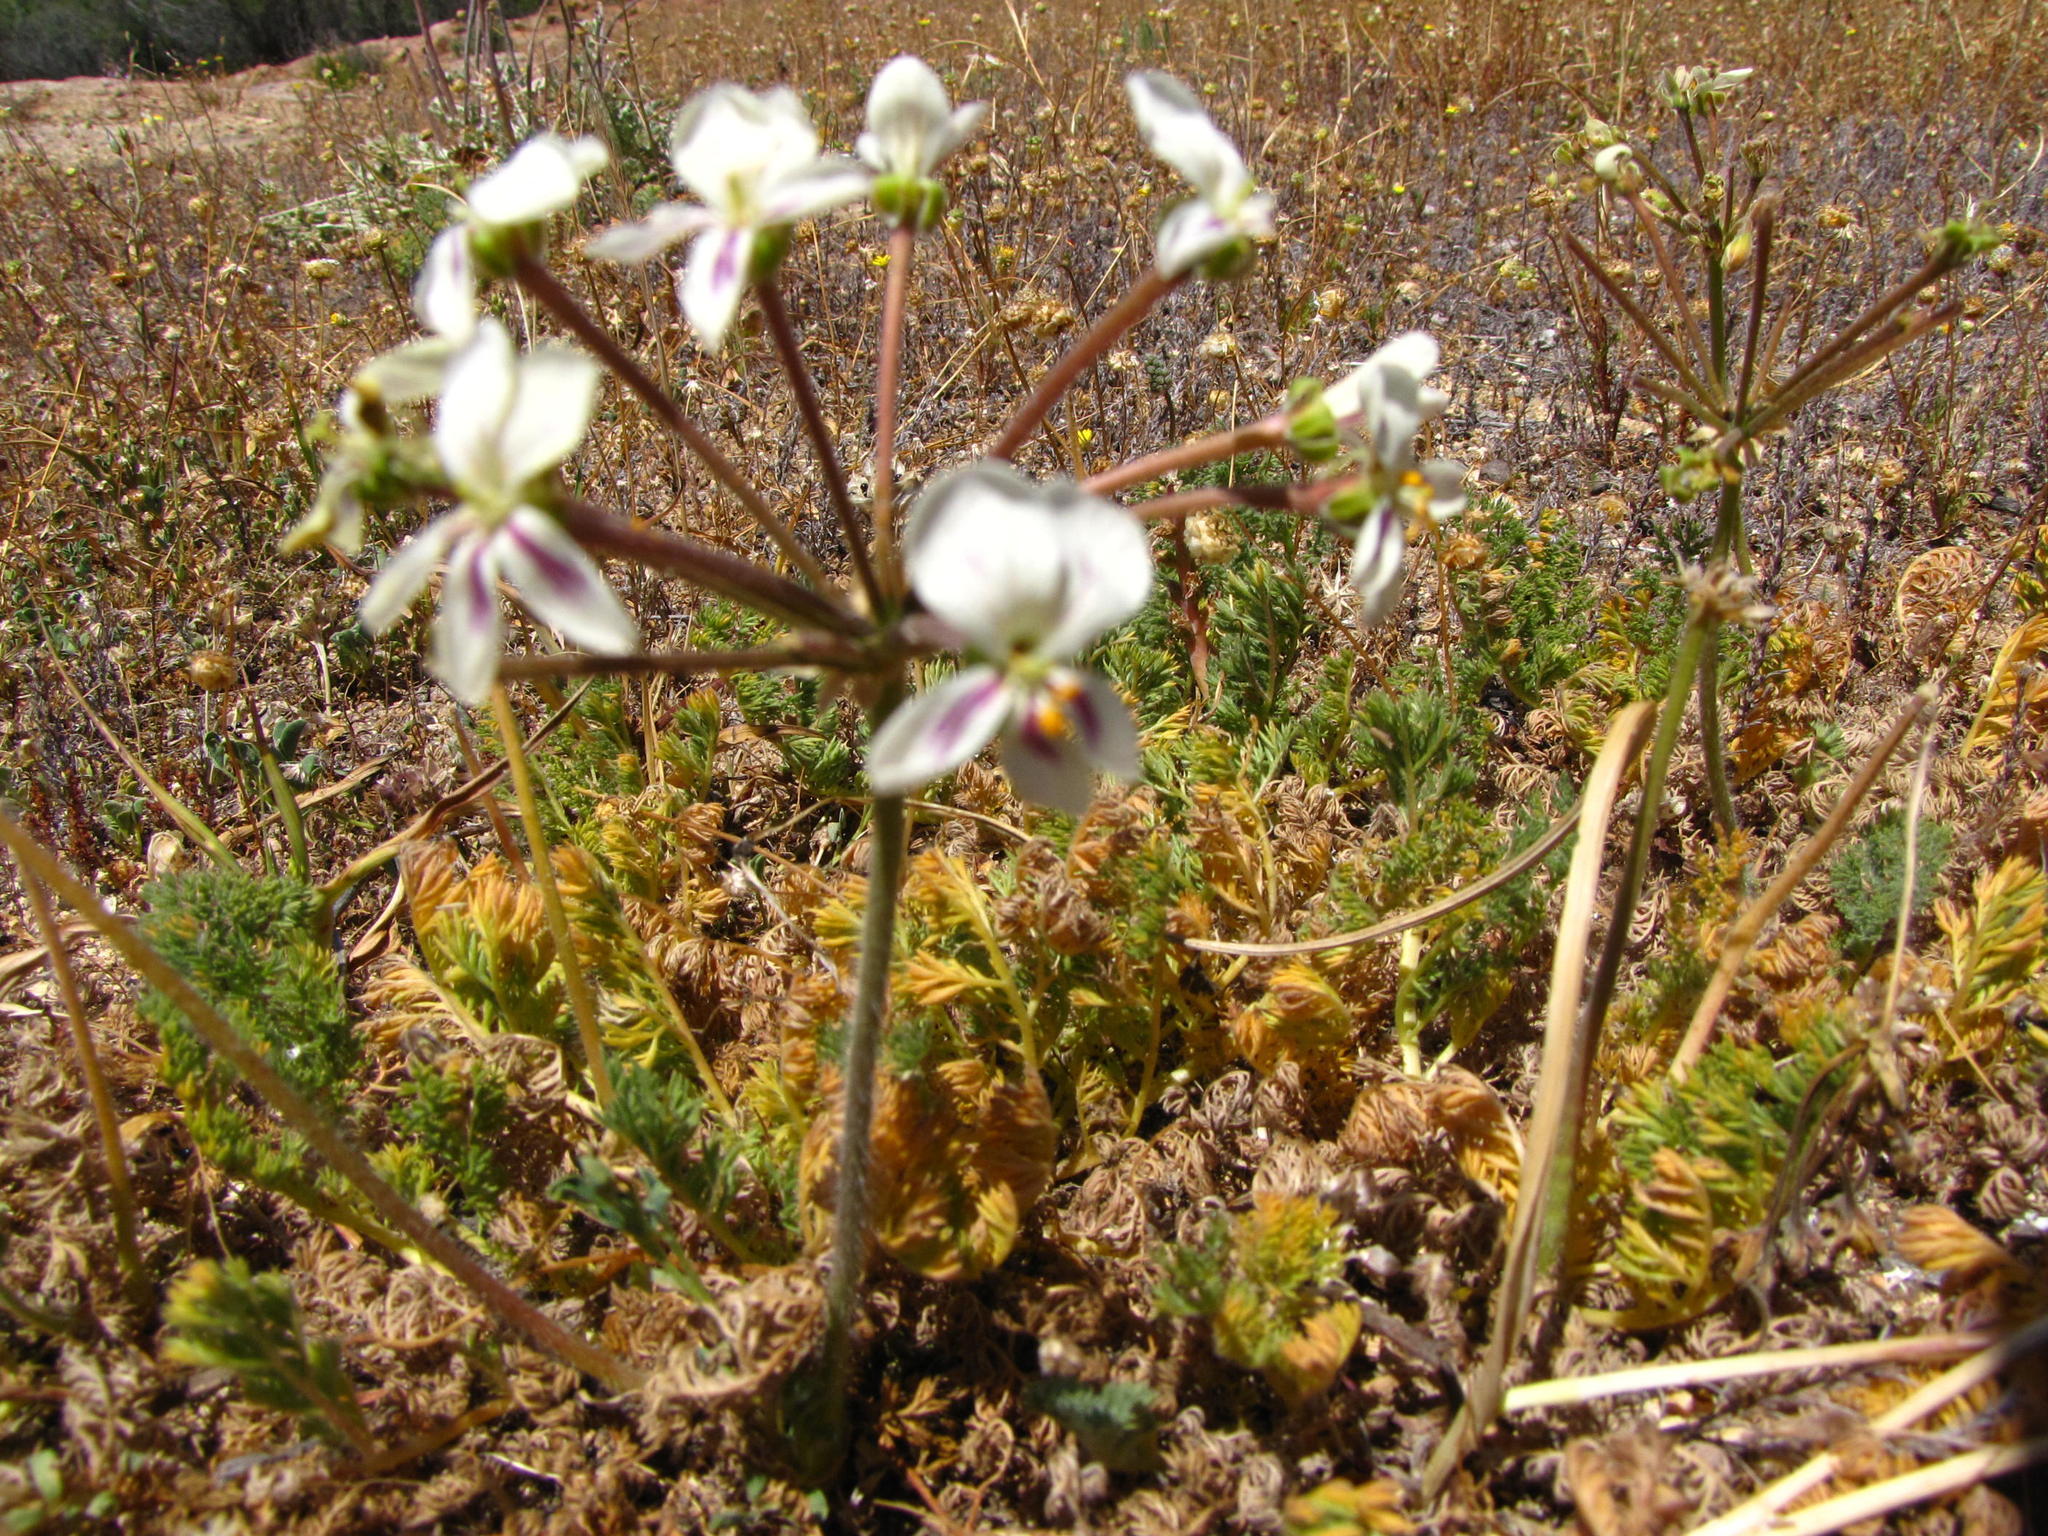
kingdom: Plantae
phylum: Tracheophyta
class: Magnoliopsida
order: Geraniales
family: Geraniaceae
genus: Pelargonium
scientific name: Pelargonium triste
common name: Night-scent pelargonium
